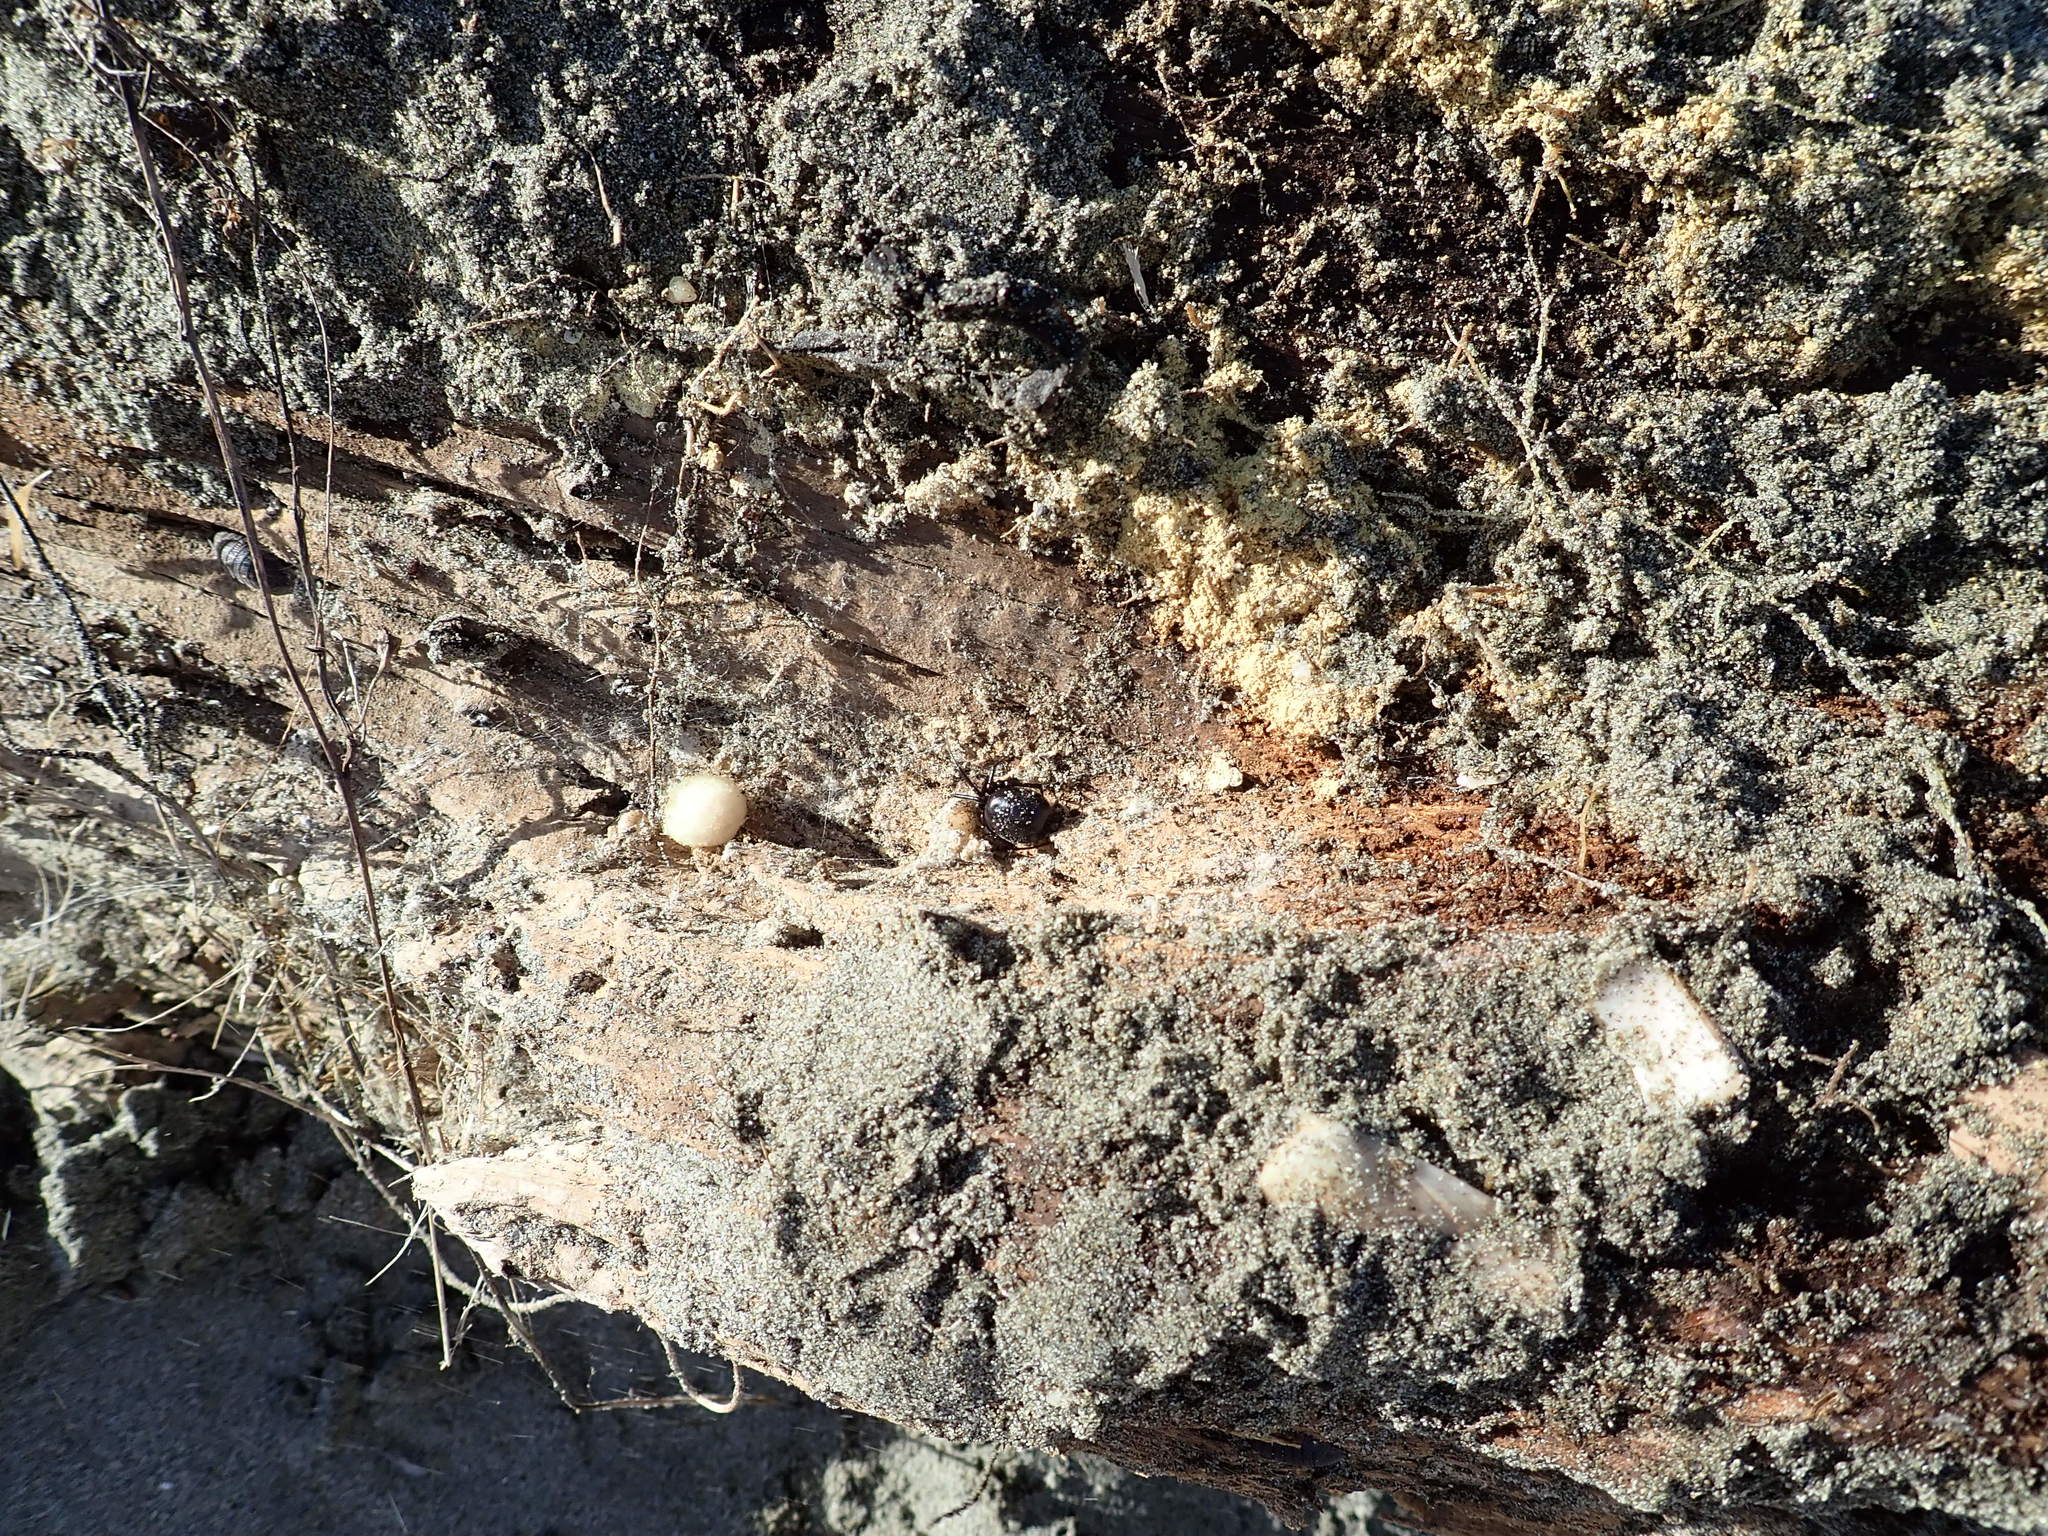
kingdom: Animalia
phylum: Arthropoda
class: Arachnida
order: Araneae
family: Theridiidae
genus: Steatoda
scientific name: Steatoda capensis
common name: Cobweb weaver
